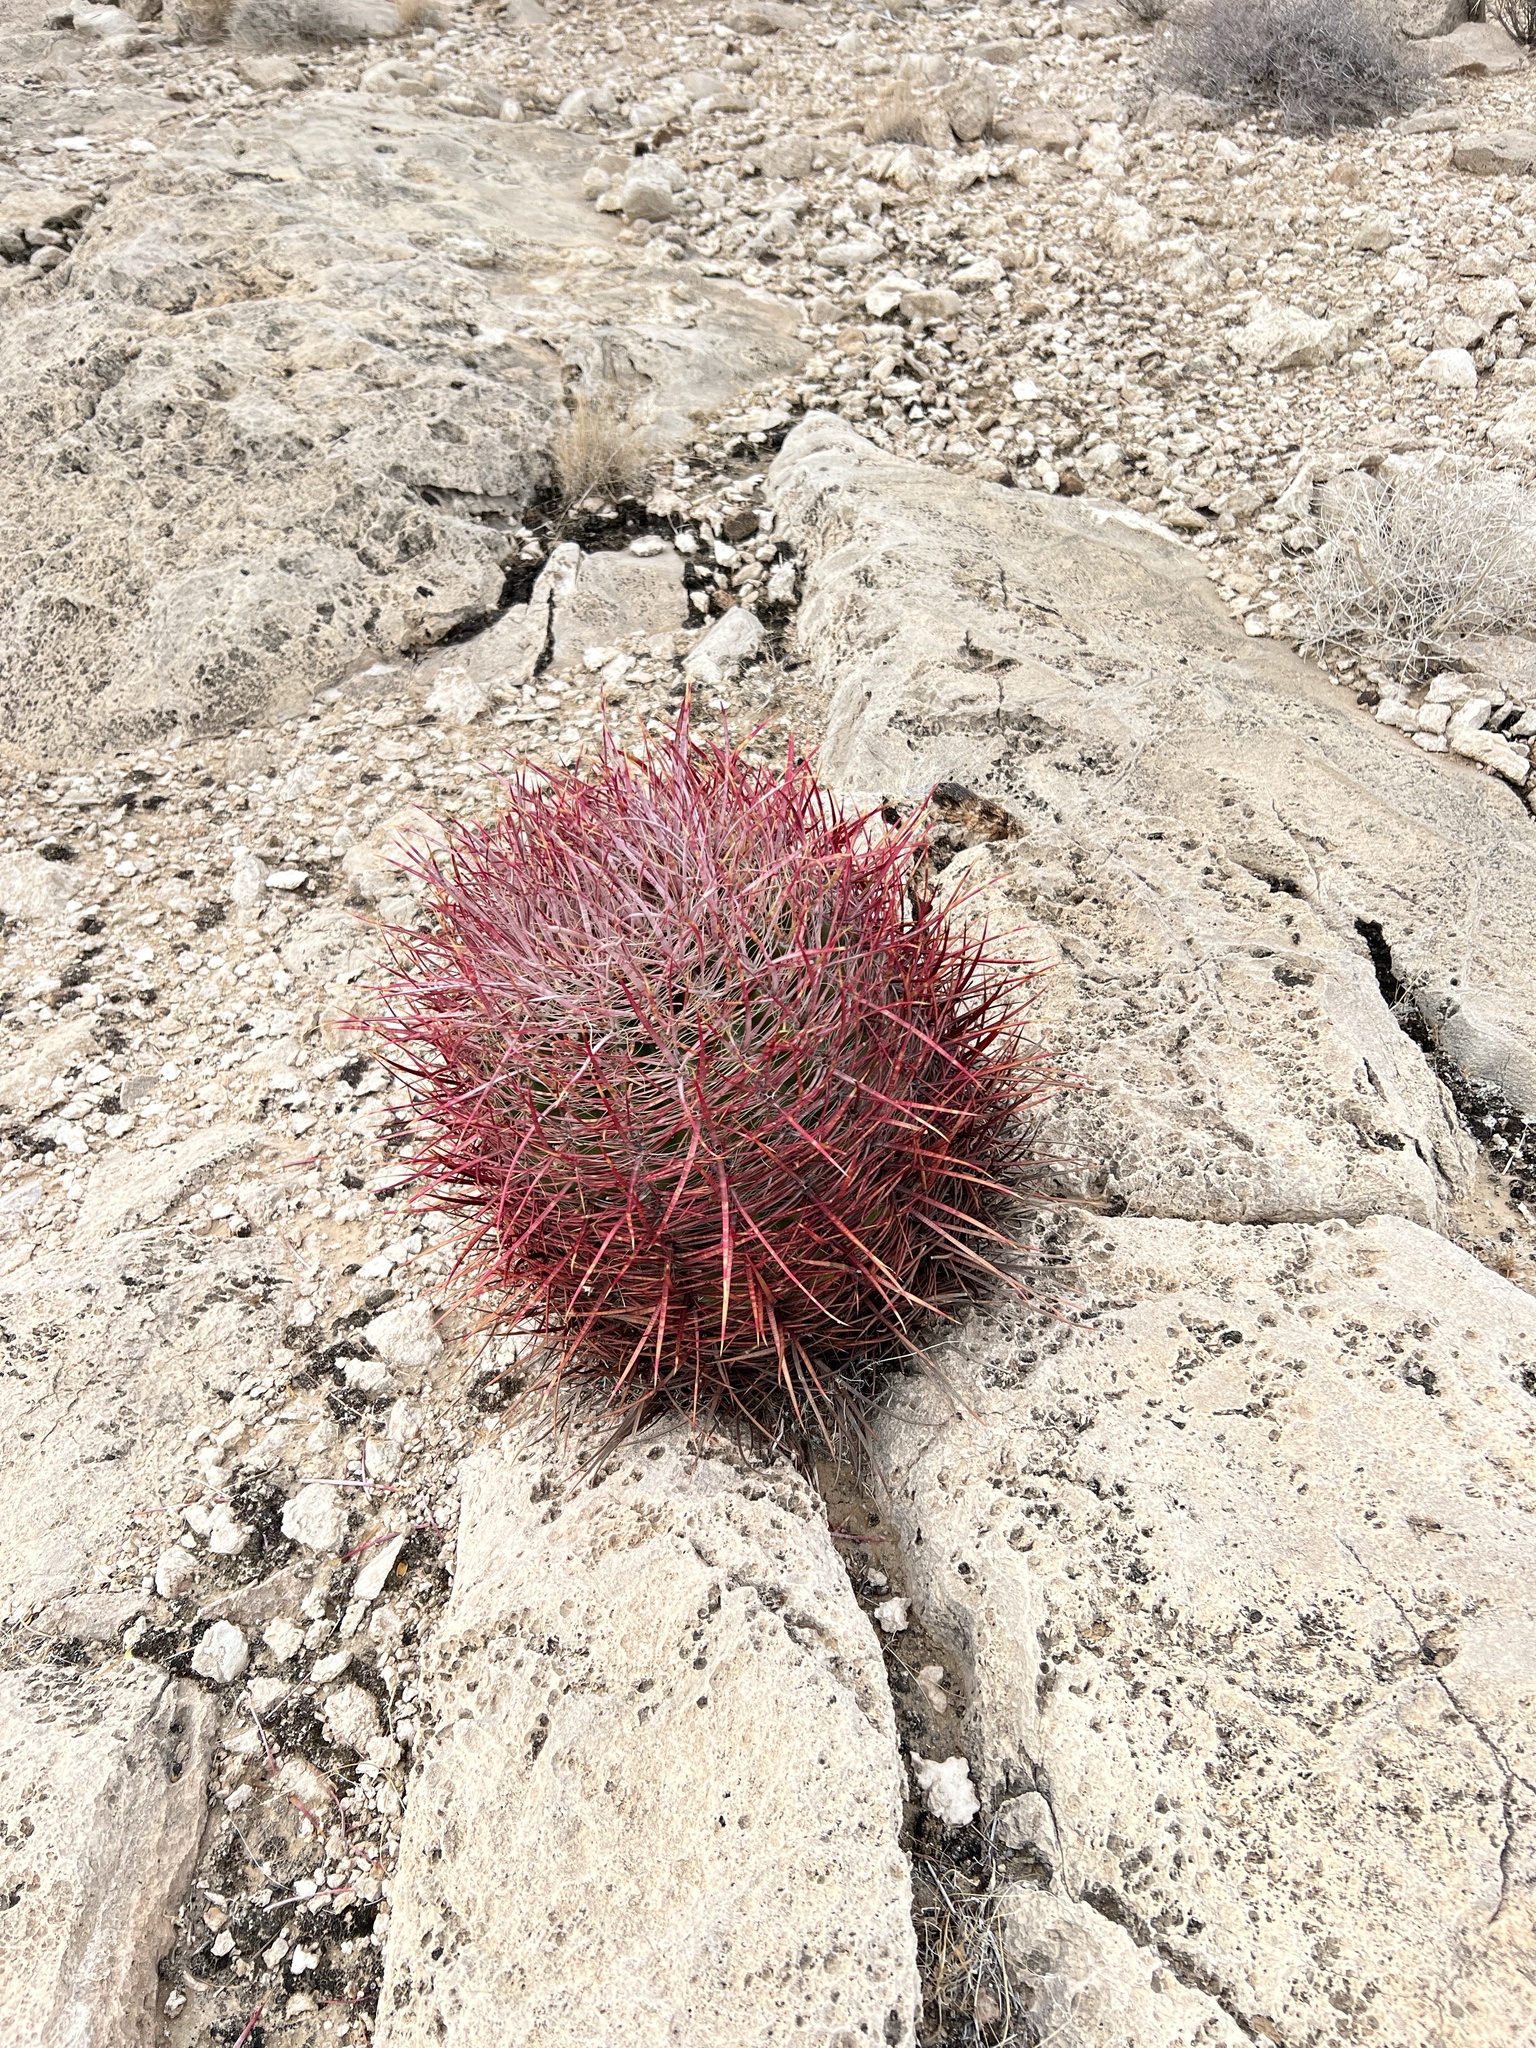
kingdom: Plantae
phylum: Tracheophyta
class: Magnoliopsida
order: Caryophyllales
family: Cactaceae
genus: Ferocactus
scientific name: Ferocactus cylindraceus
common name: California barrel cactus
